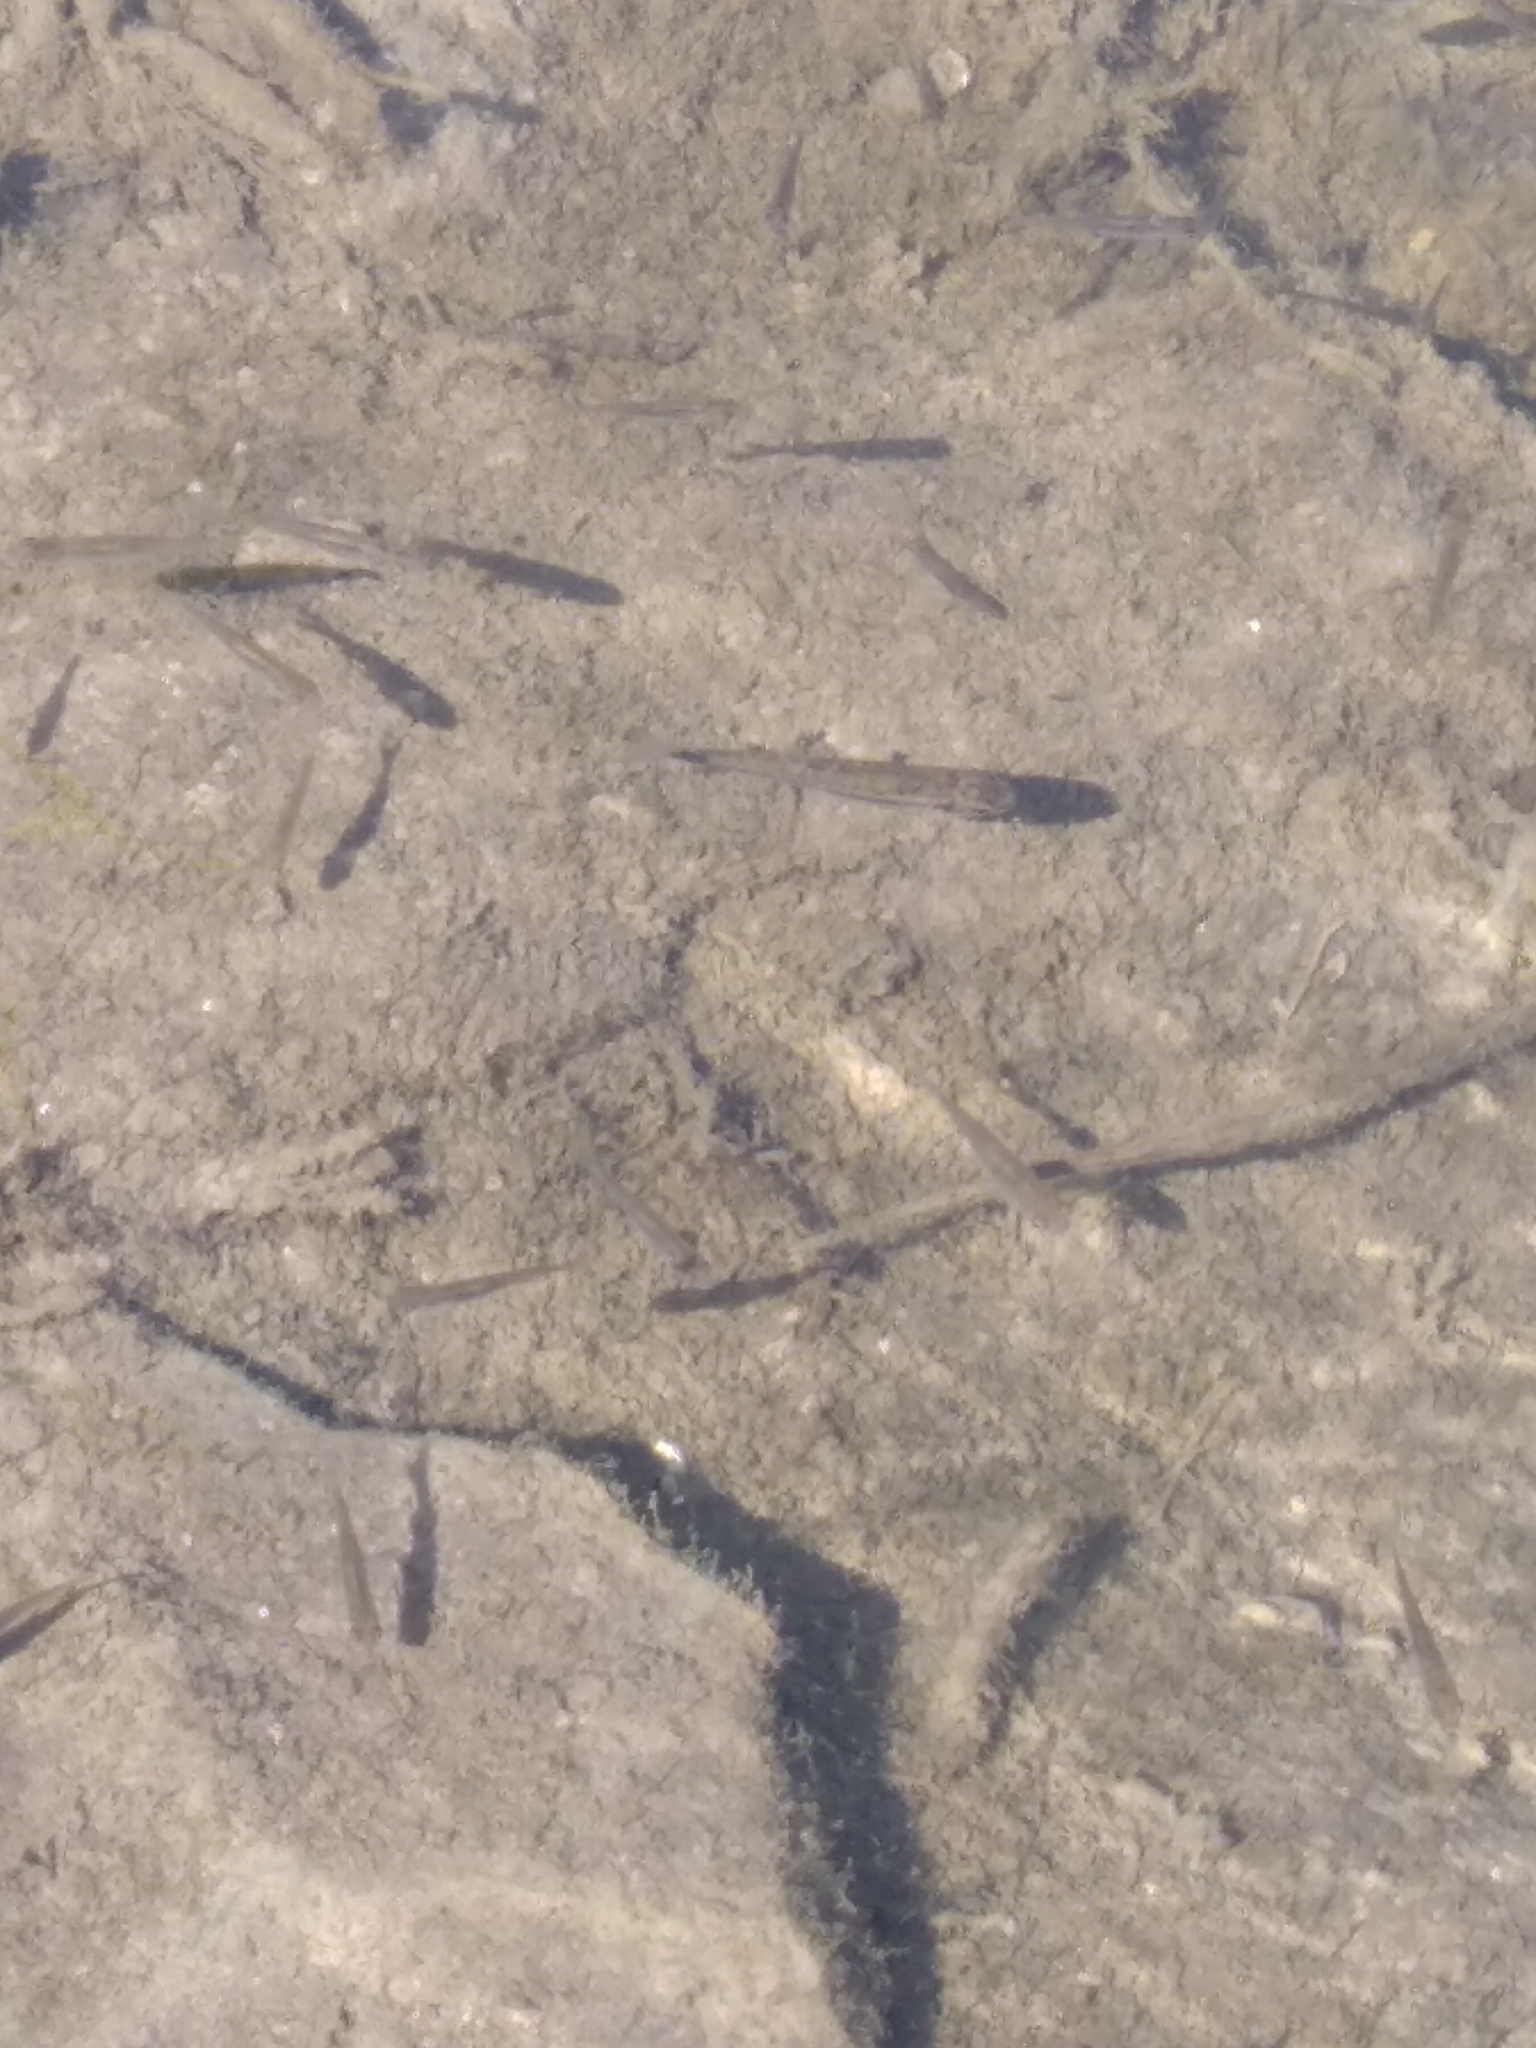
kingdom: Animalia
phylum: Chordata
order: Cypriniformes
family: Cyprinidae
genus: Phoxinus
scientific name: Phoxinus phoxinus
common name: Minnow
